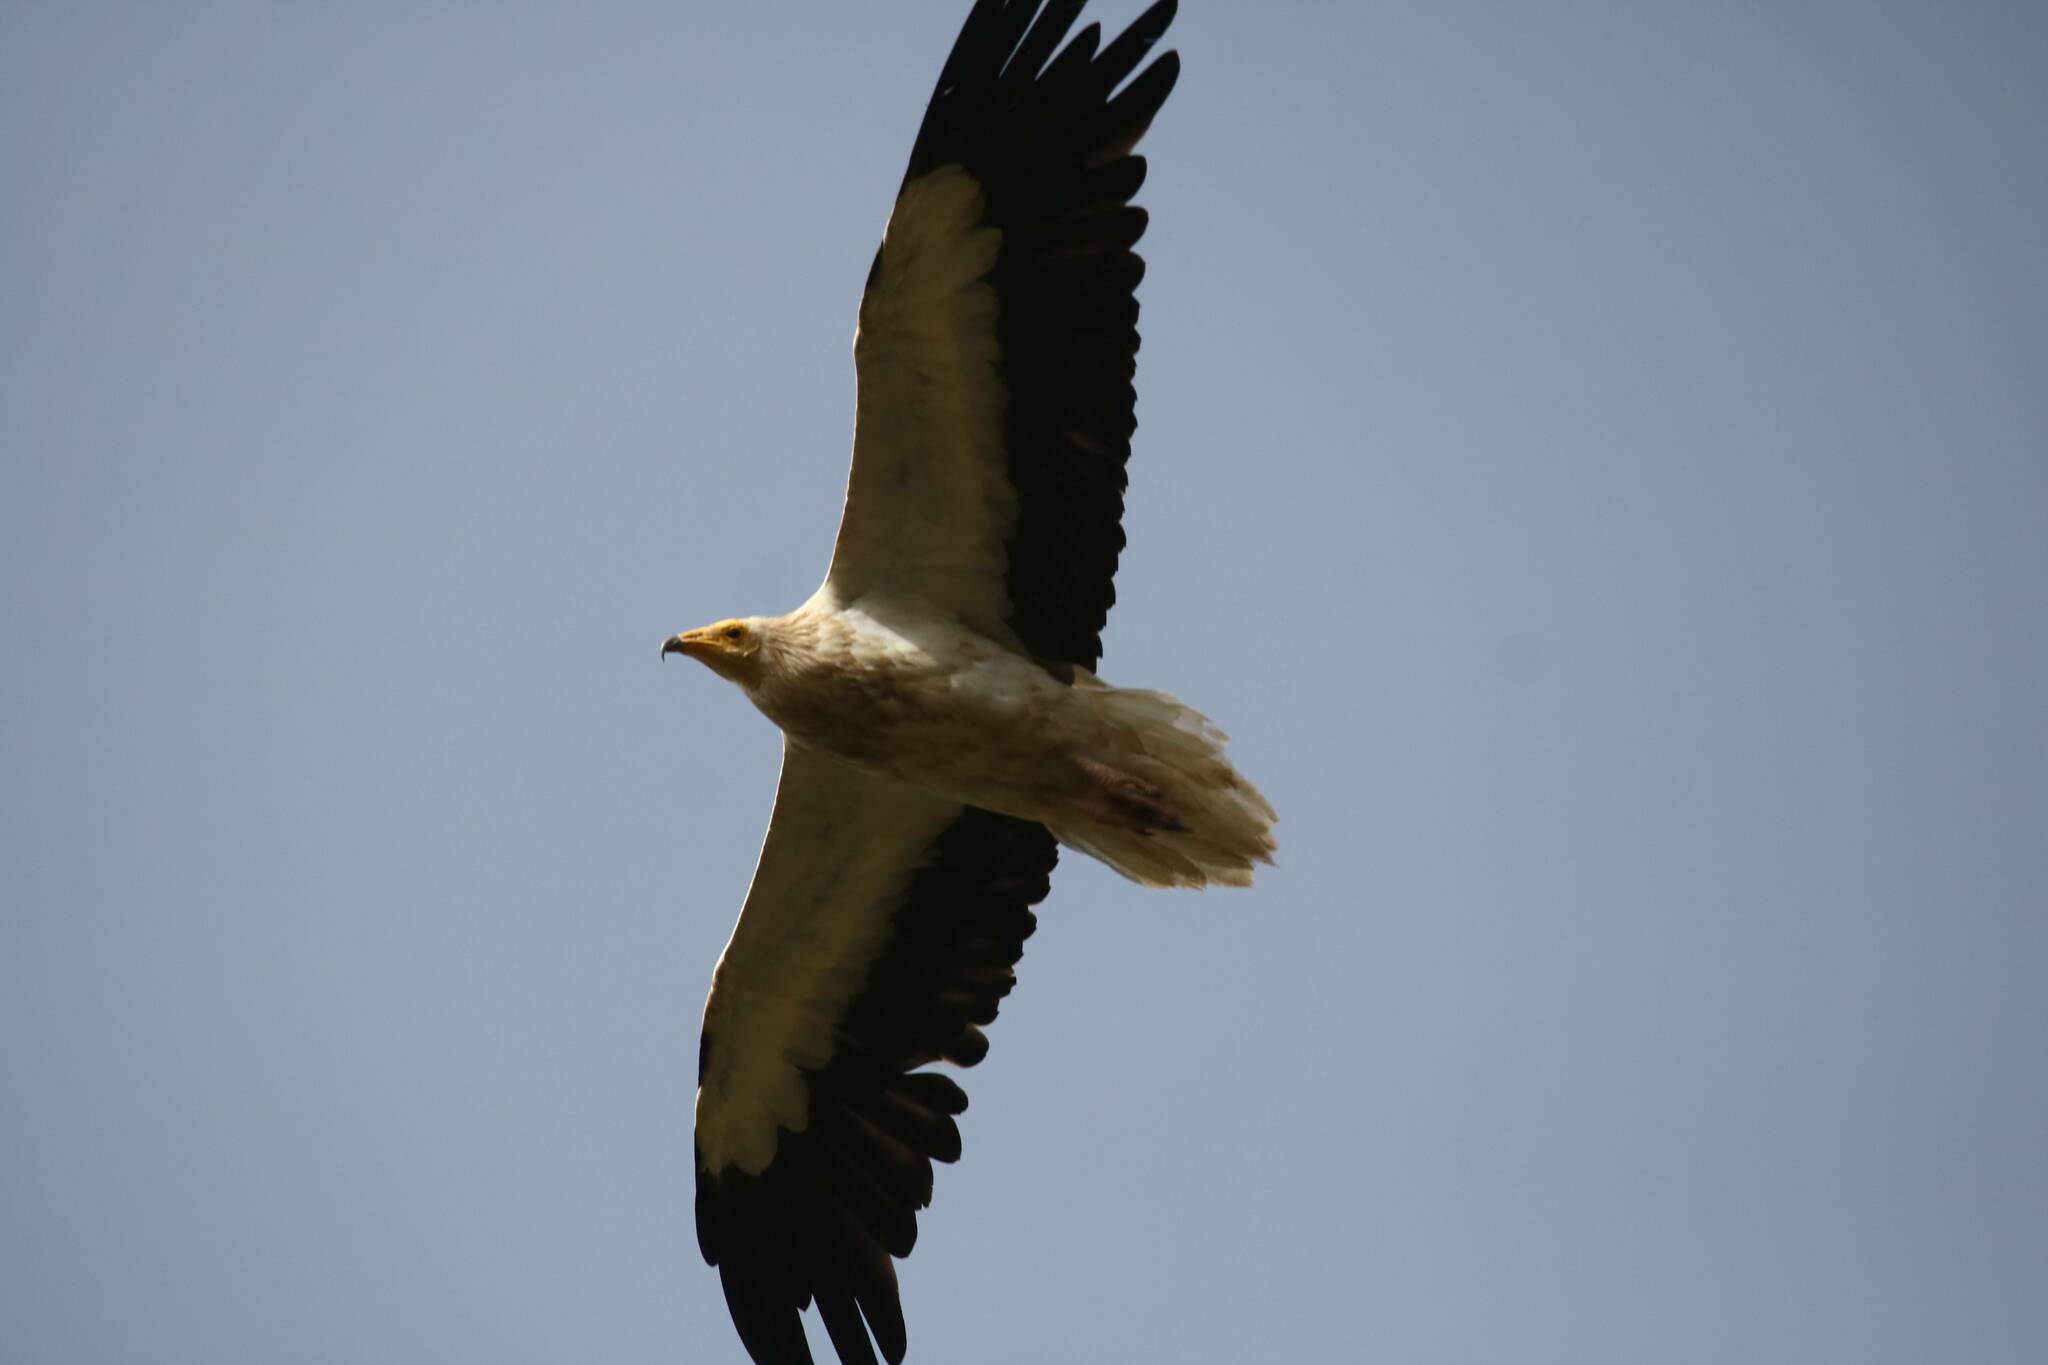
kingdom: Animalia
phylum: Chordata
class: Aves
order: Accipitriformes
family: Accipitridae
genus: Neophron
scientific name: Neophron percnopterus
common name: Egyptian vulture
